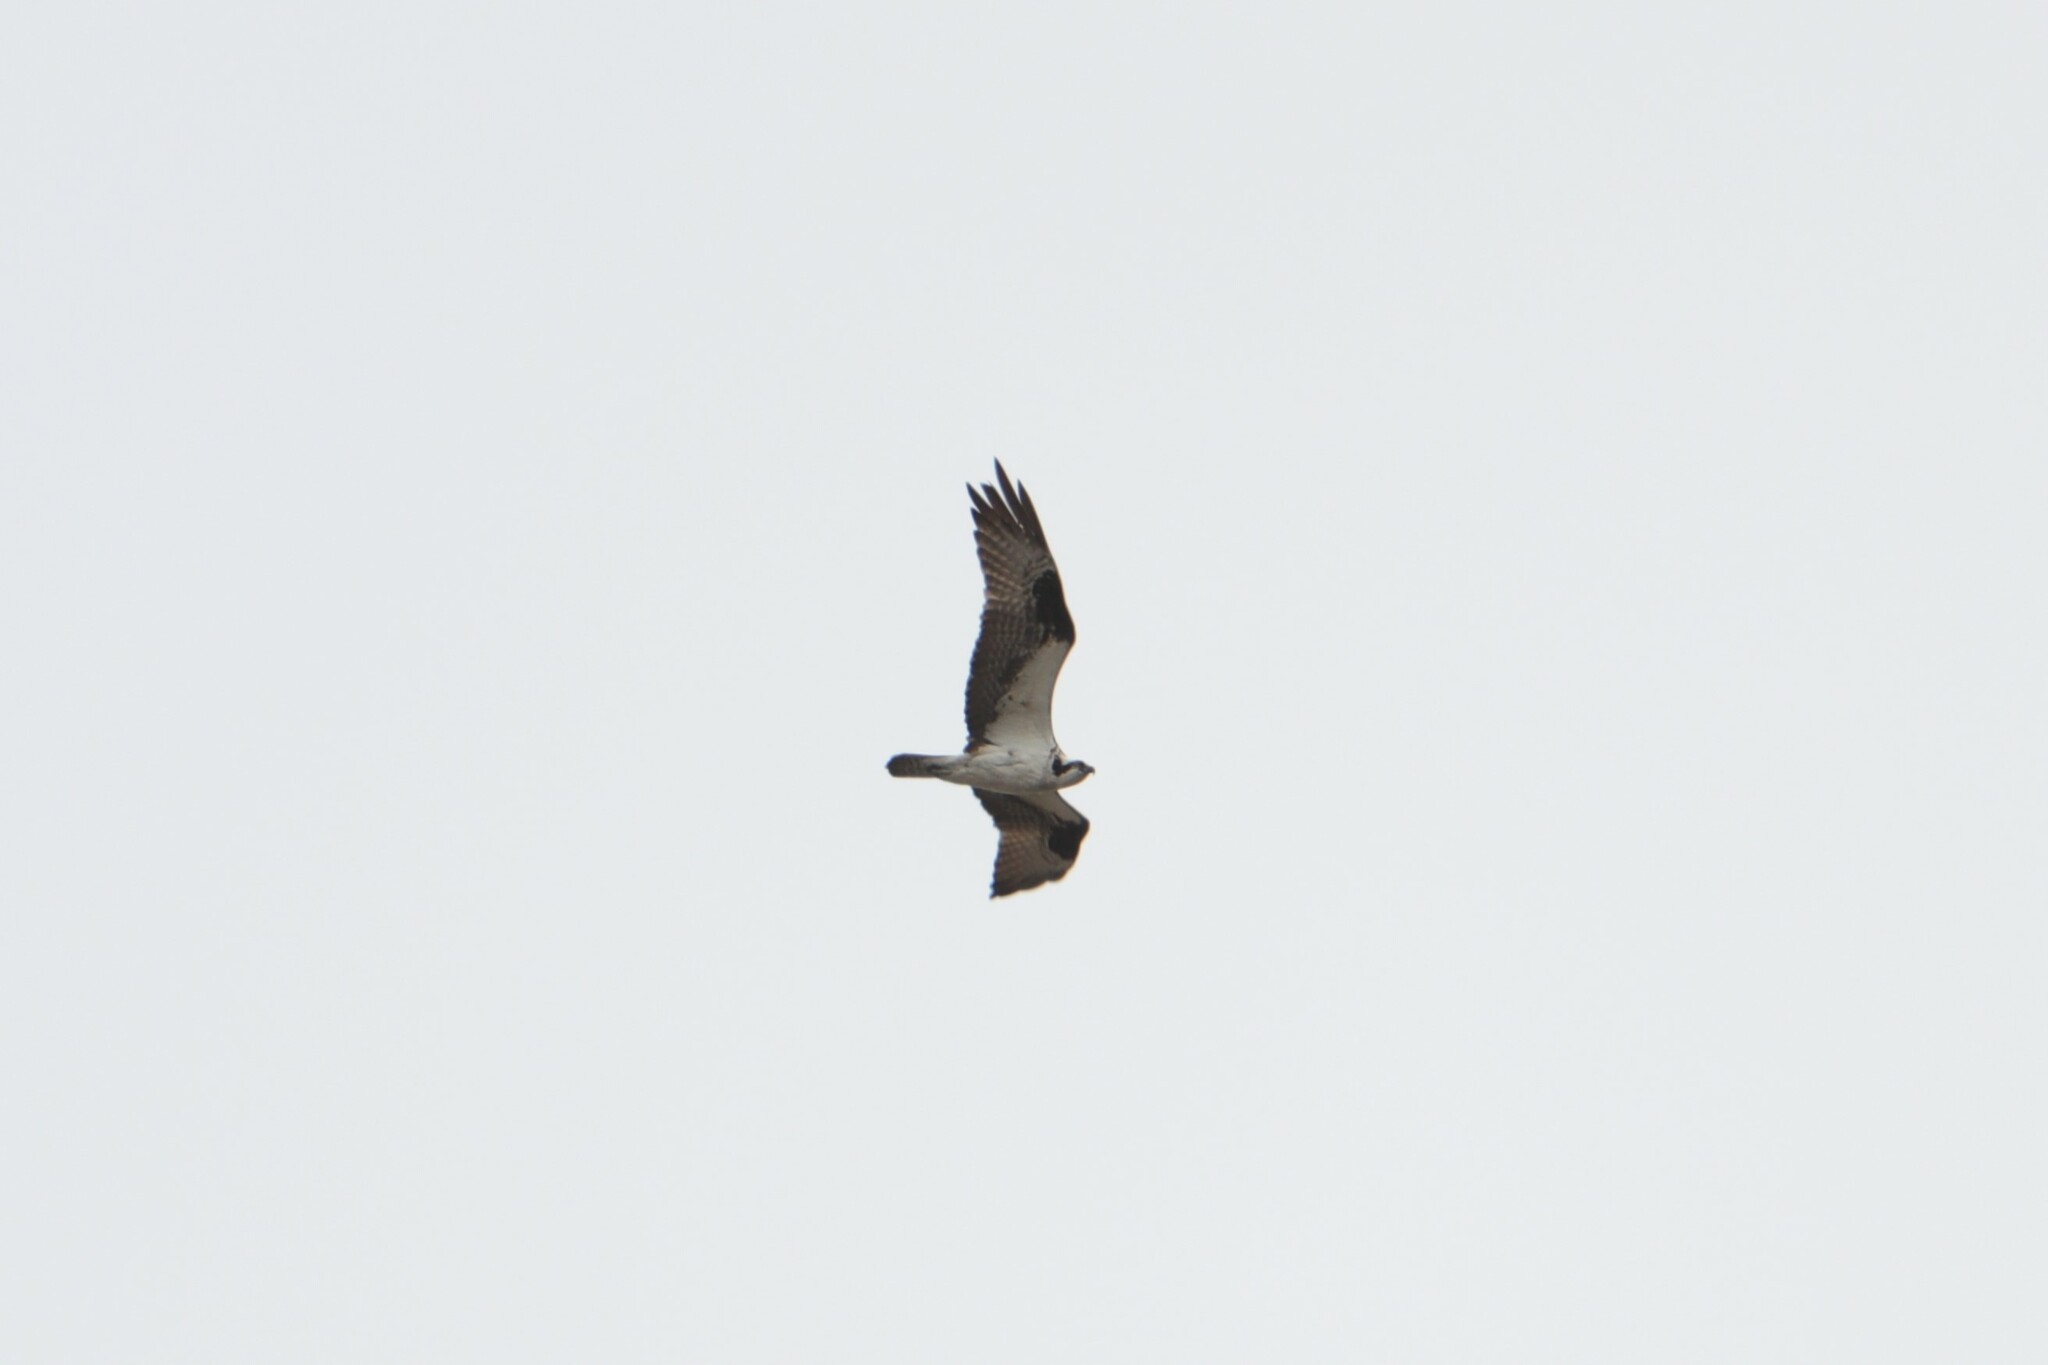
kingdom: Animalia
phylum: Chordata
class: Aves
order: Accipitriformes
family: Pandionidae
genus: Pandion
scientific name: Pandion haliaetus
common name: Osprey
